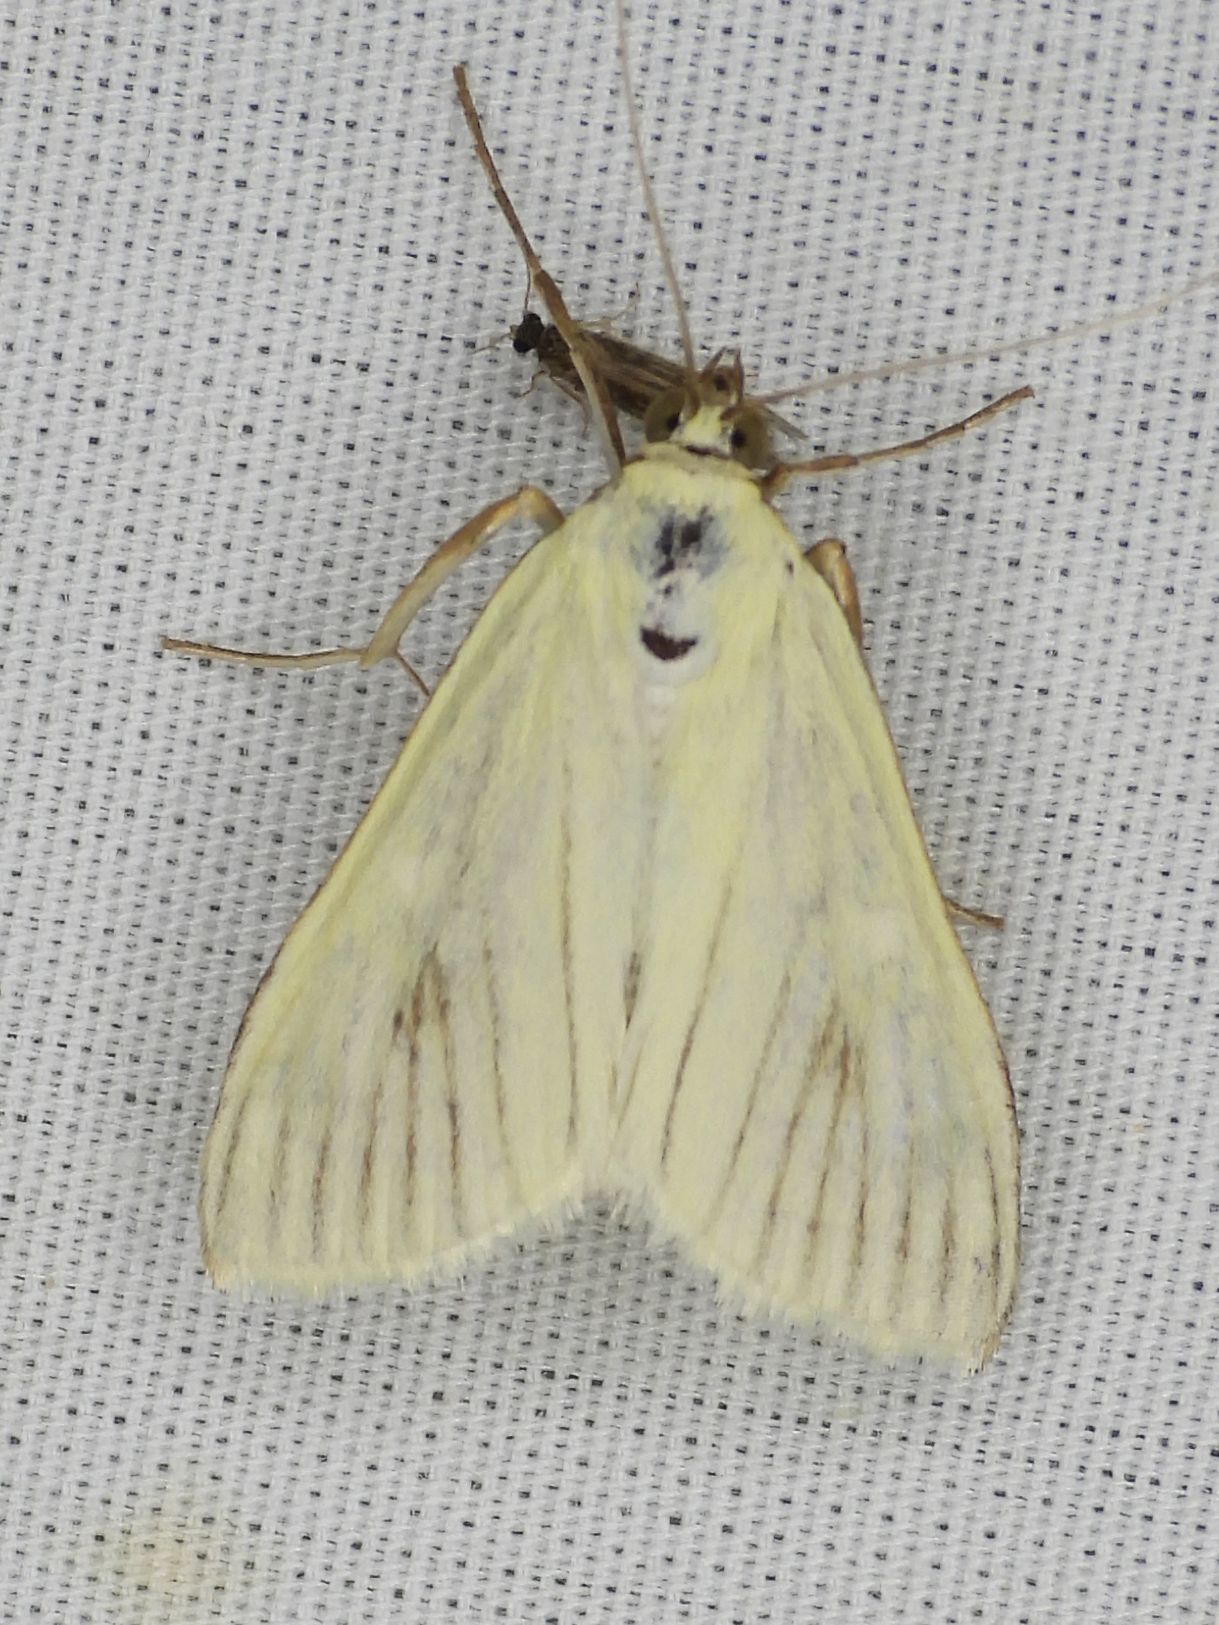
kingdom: Animalia
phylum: Arthropoda
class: Insecta
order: Lepidoptera
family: Crambidae
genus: Sitochroa
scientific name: Sitochroa palealis
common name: Greenish-yellow sitochroa moth
